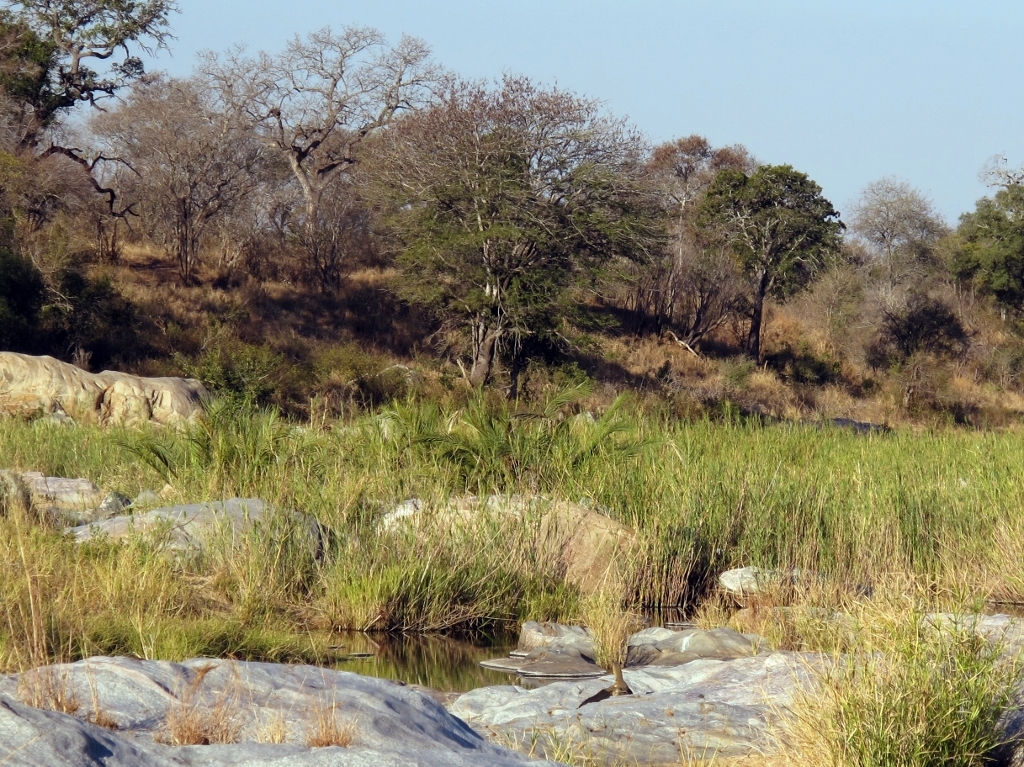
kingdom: Animalia
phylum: Chordata
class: Squamata
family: Varanidae
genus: Varanus
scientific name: Varanus niloticus
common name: Nile monitor
